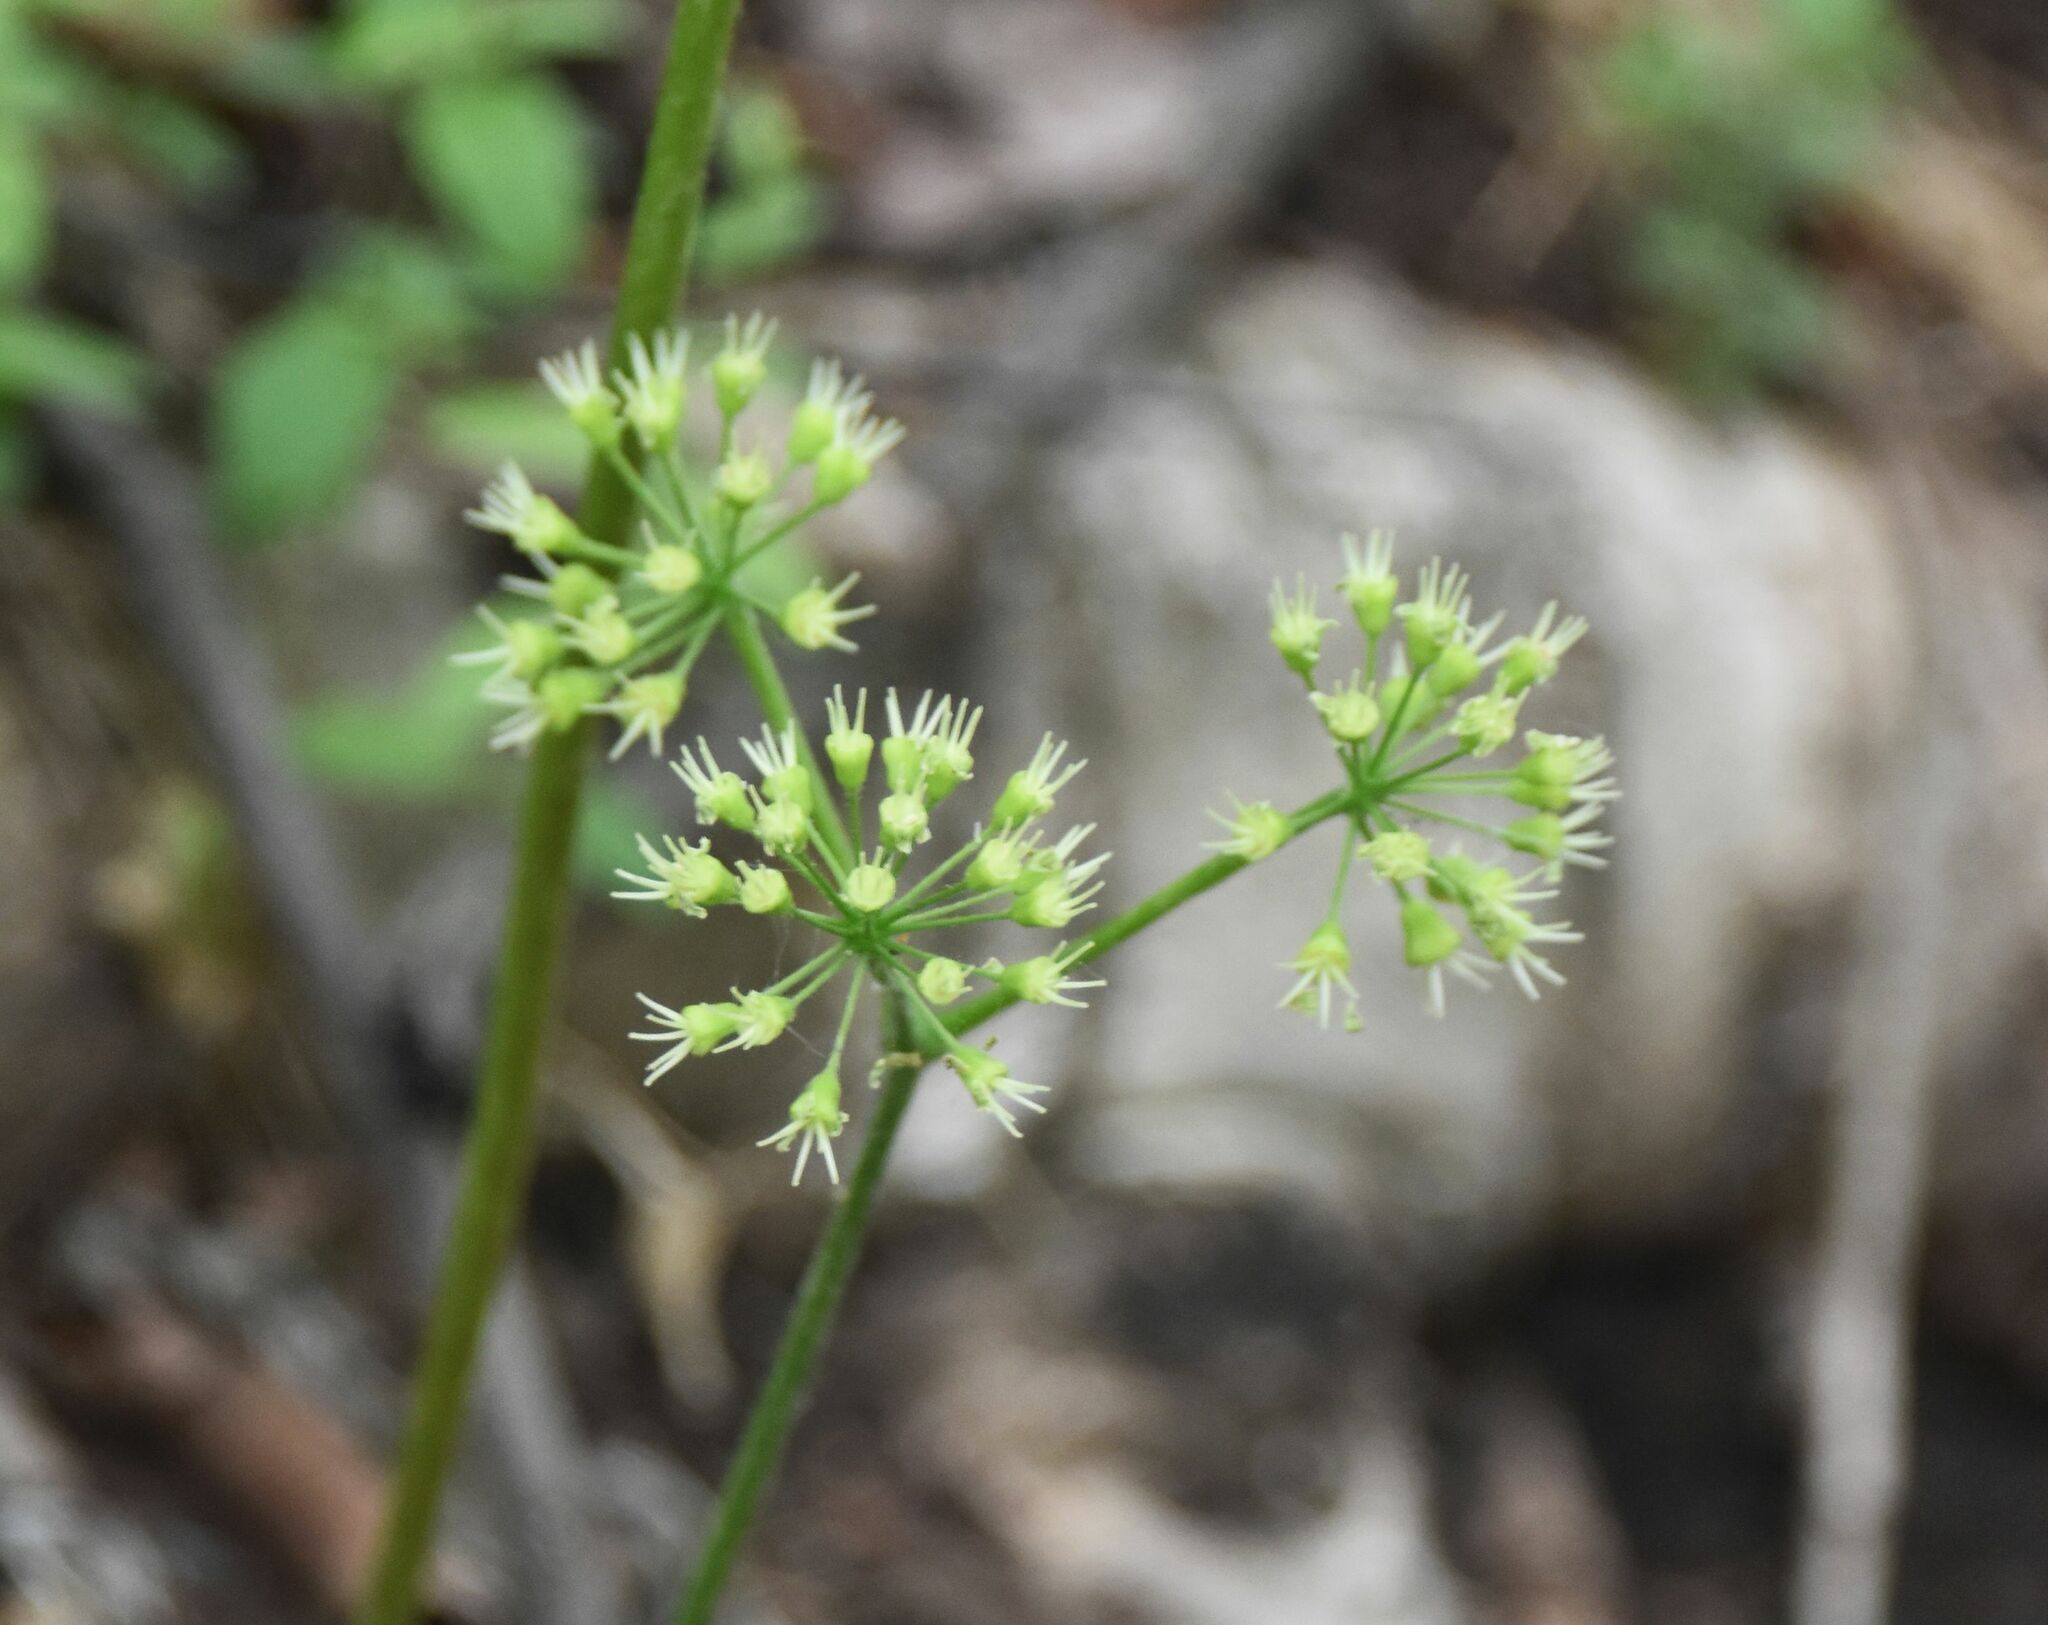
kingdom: Plantae
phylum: Tracheophyta
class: Magnoliopsida
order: Apiales
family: Araliaceae
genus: Aralia
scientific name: Aralia nudicaulis
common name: Wild sarsaparilla
